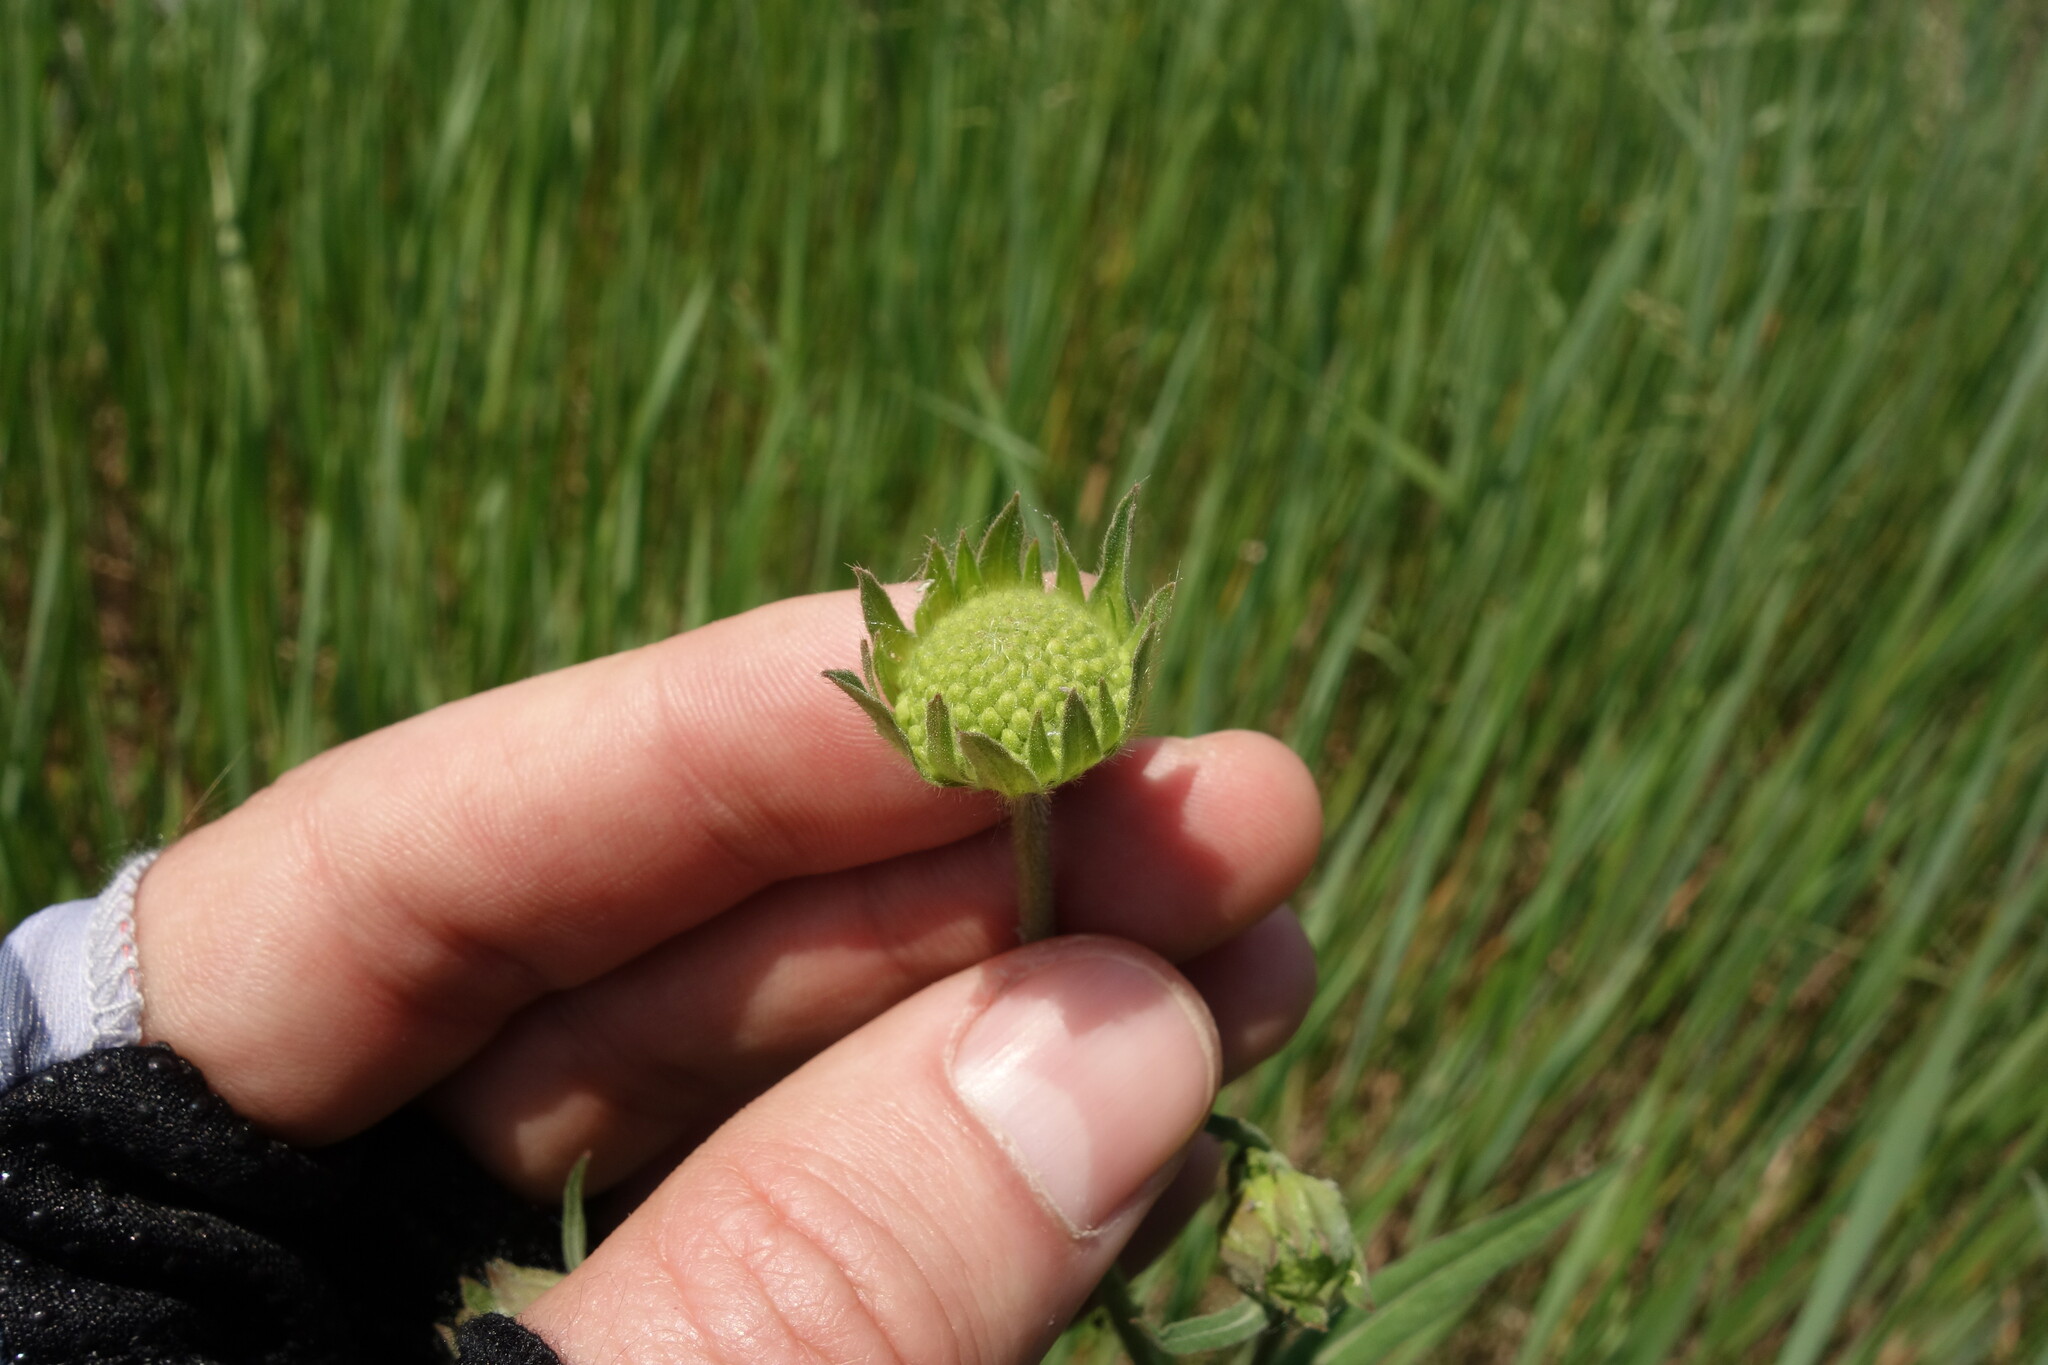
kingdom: Plantae
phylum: Tracheophyta
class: Magnoliopsida
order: Dipsacales
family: Caprifoliaceae
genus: Knautia
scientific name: Knautia arvensis
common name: Field scabiosa
